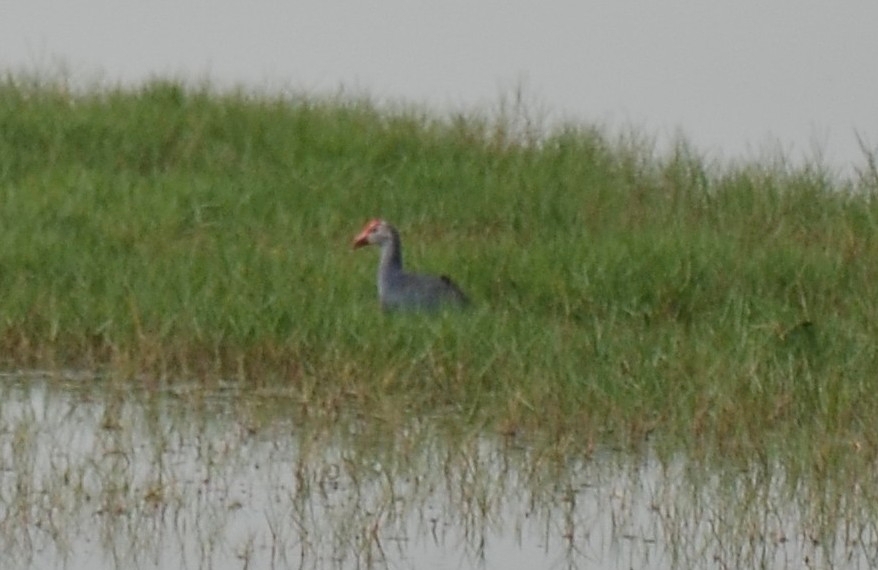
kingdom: Animalia
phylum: Chordata
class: Aves
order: Gruiformes
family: Rallidae
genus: Porphyrio
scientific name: Porphyrio porphyrio
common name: Purple swamphen
